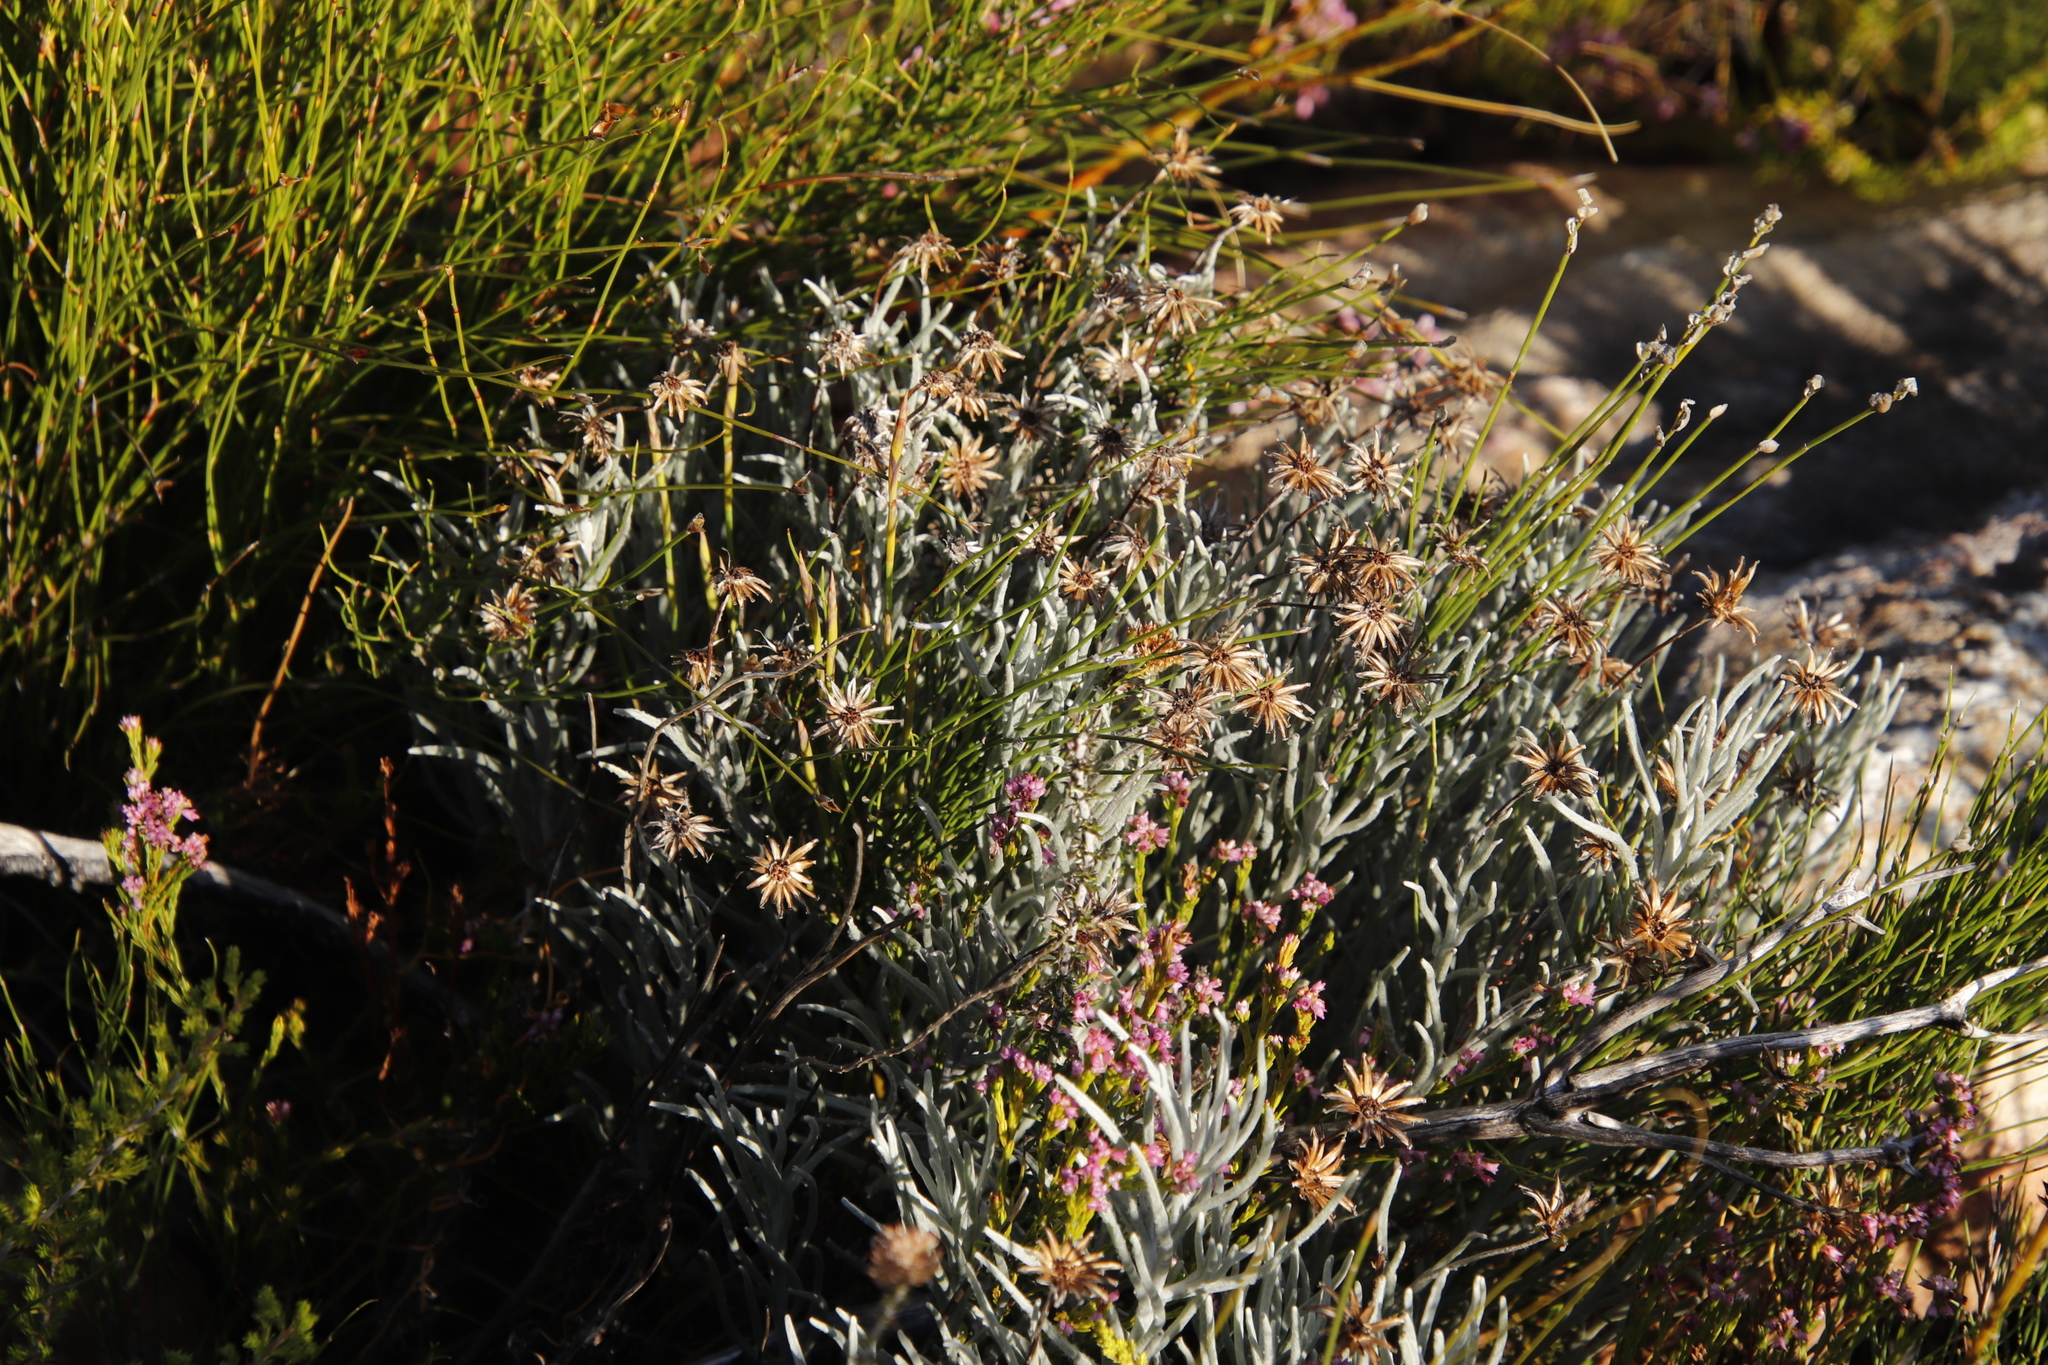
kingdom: Plantae
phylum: Tracheophyta
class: Magnoliopsida
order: Asterales
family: Asteraceae
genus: Syncarpha
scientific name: Syncarpha gnaphaloides
